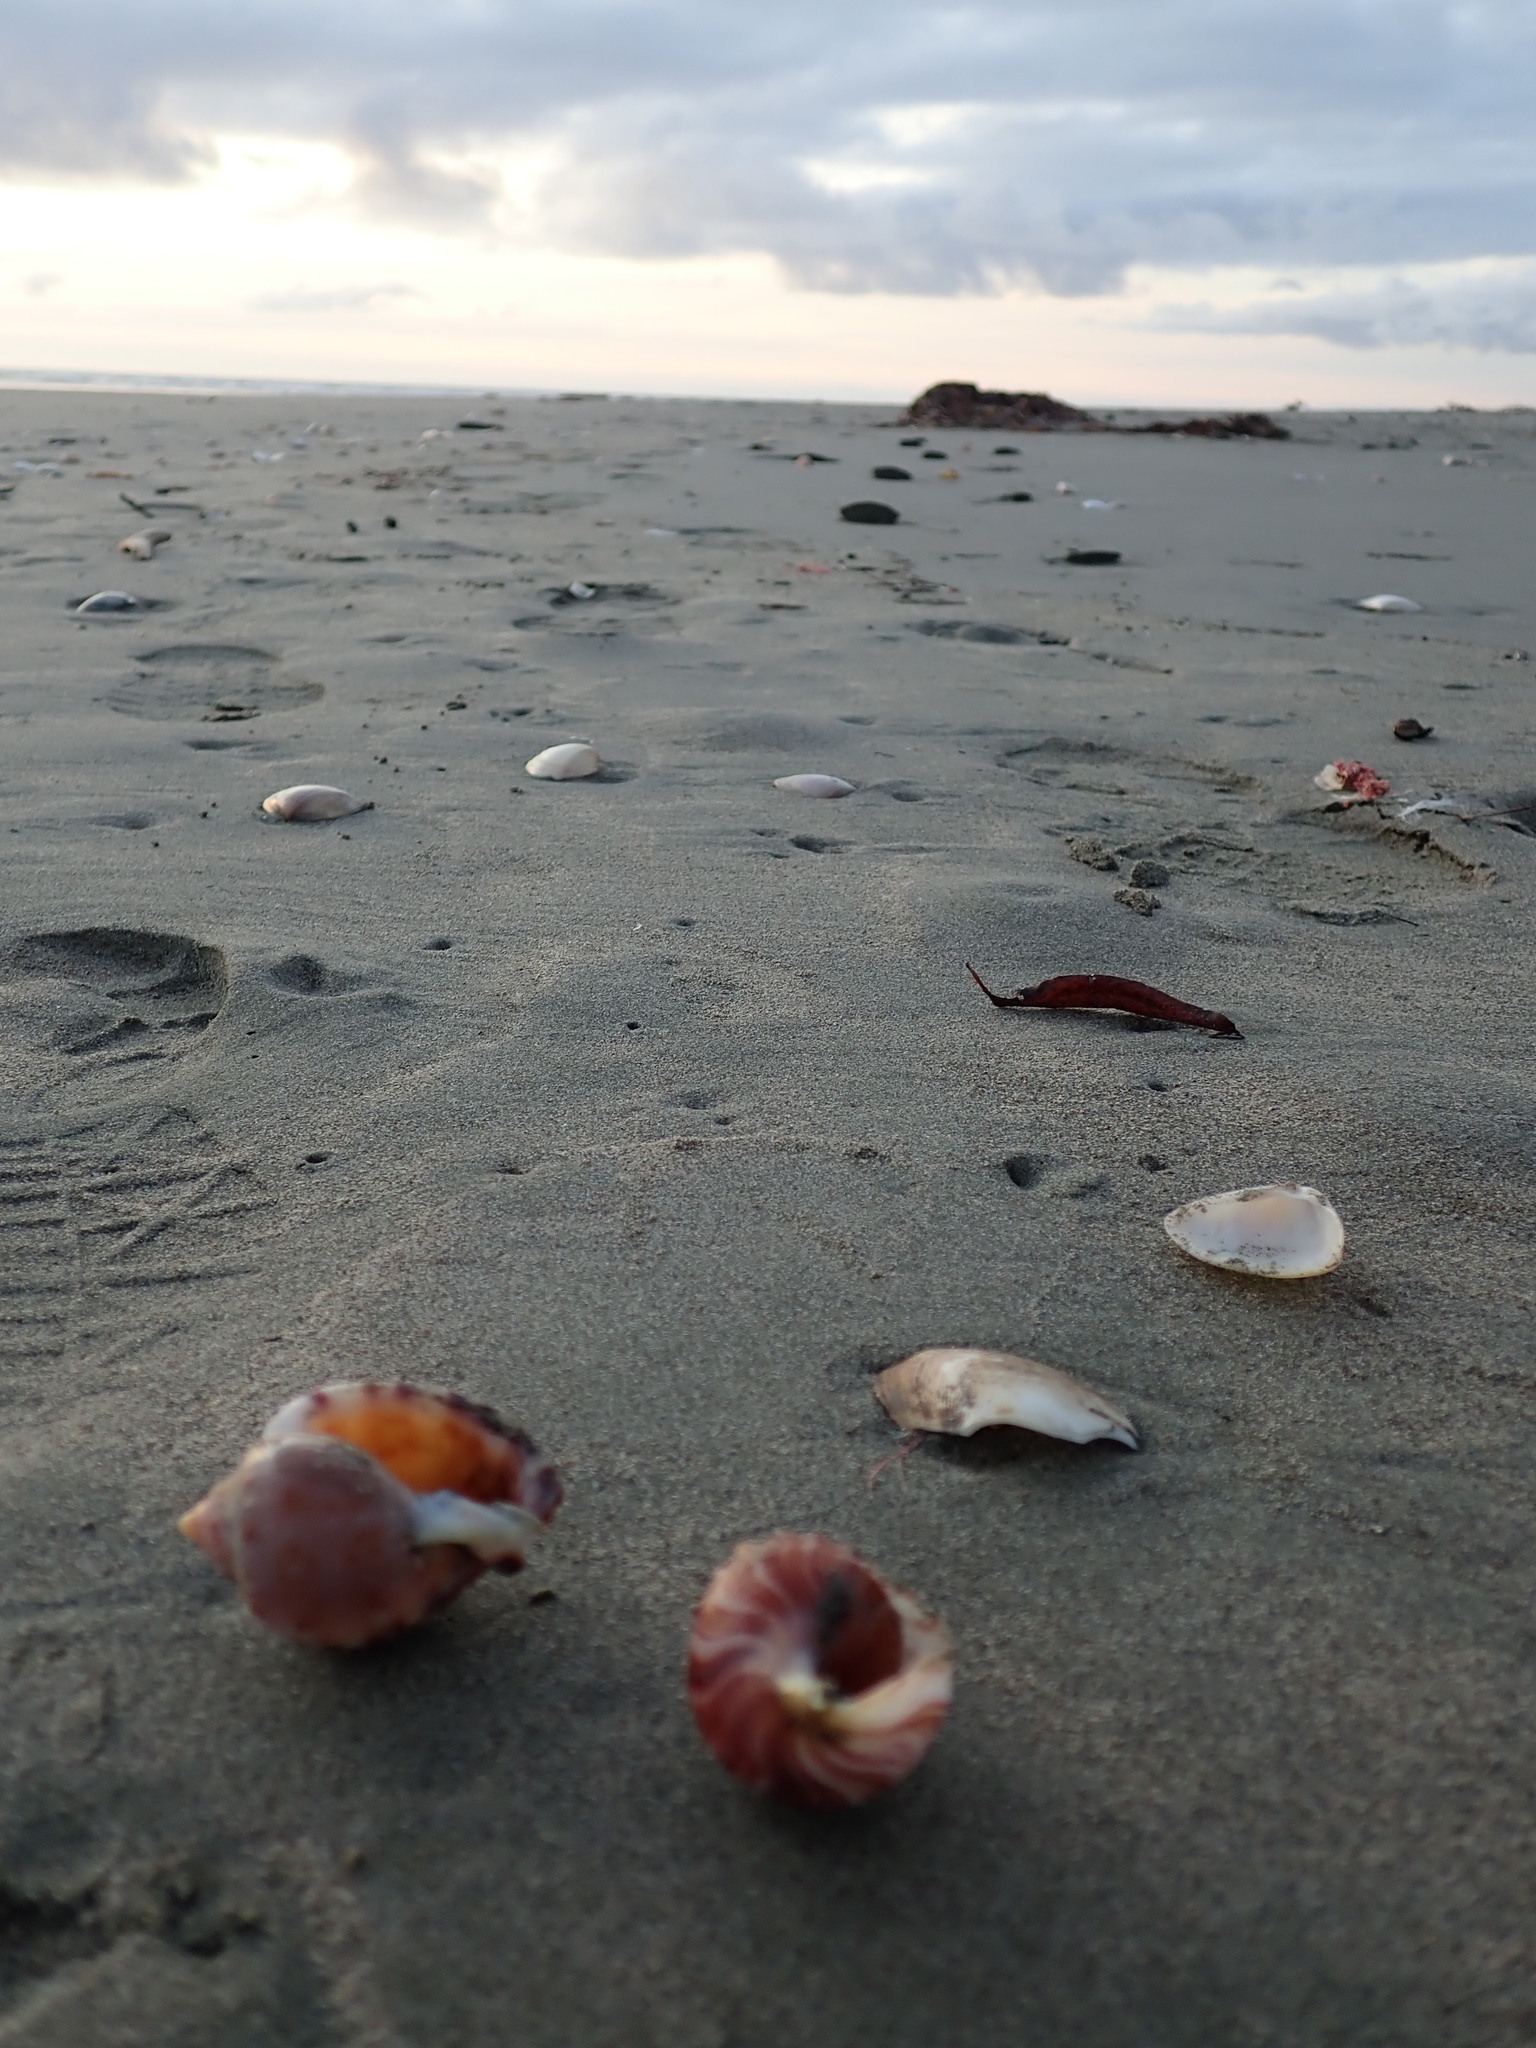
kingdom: Animalia
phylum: Mollusca
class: Gastropoda
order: Littorinimorpha
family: Struthiolariidae
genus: Struthiolaria
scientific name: Struthiolaria papulosa
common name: Large ostrich foot
